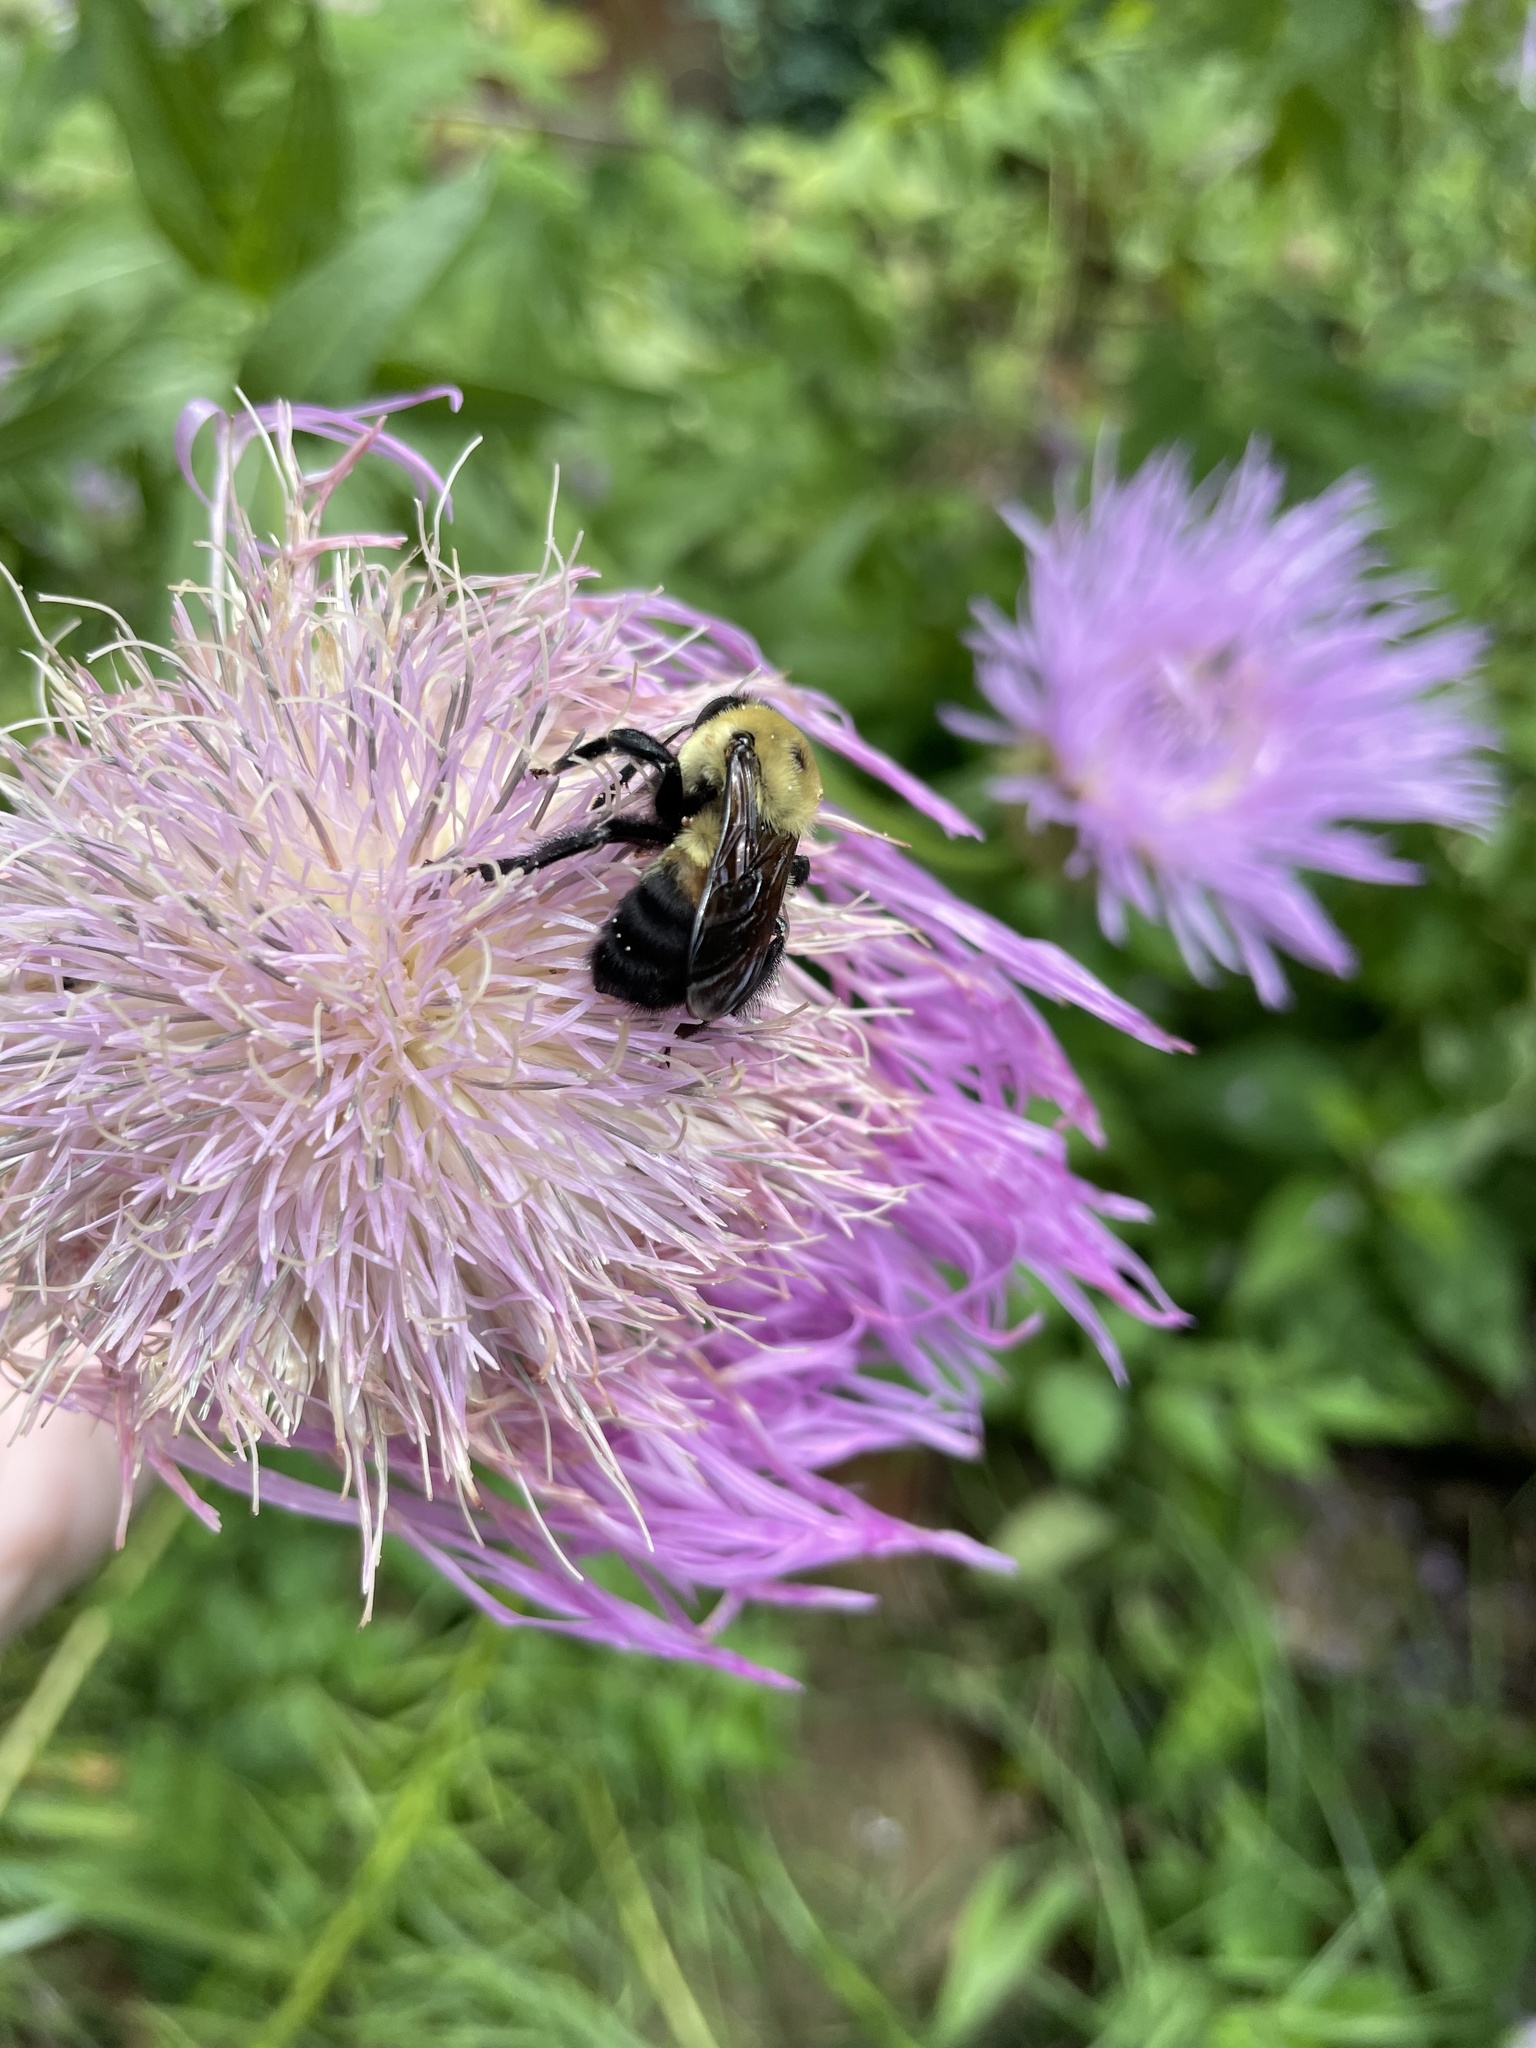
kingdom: Animalia
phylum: Arthropoda
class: Insecta
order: Hymenoptera
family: Apidae
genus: Bombus
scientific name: Bombus griseocollis
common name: Brown-belted bumble bee
